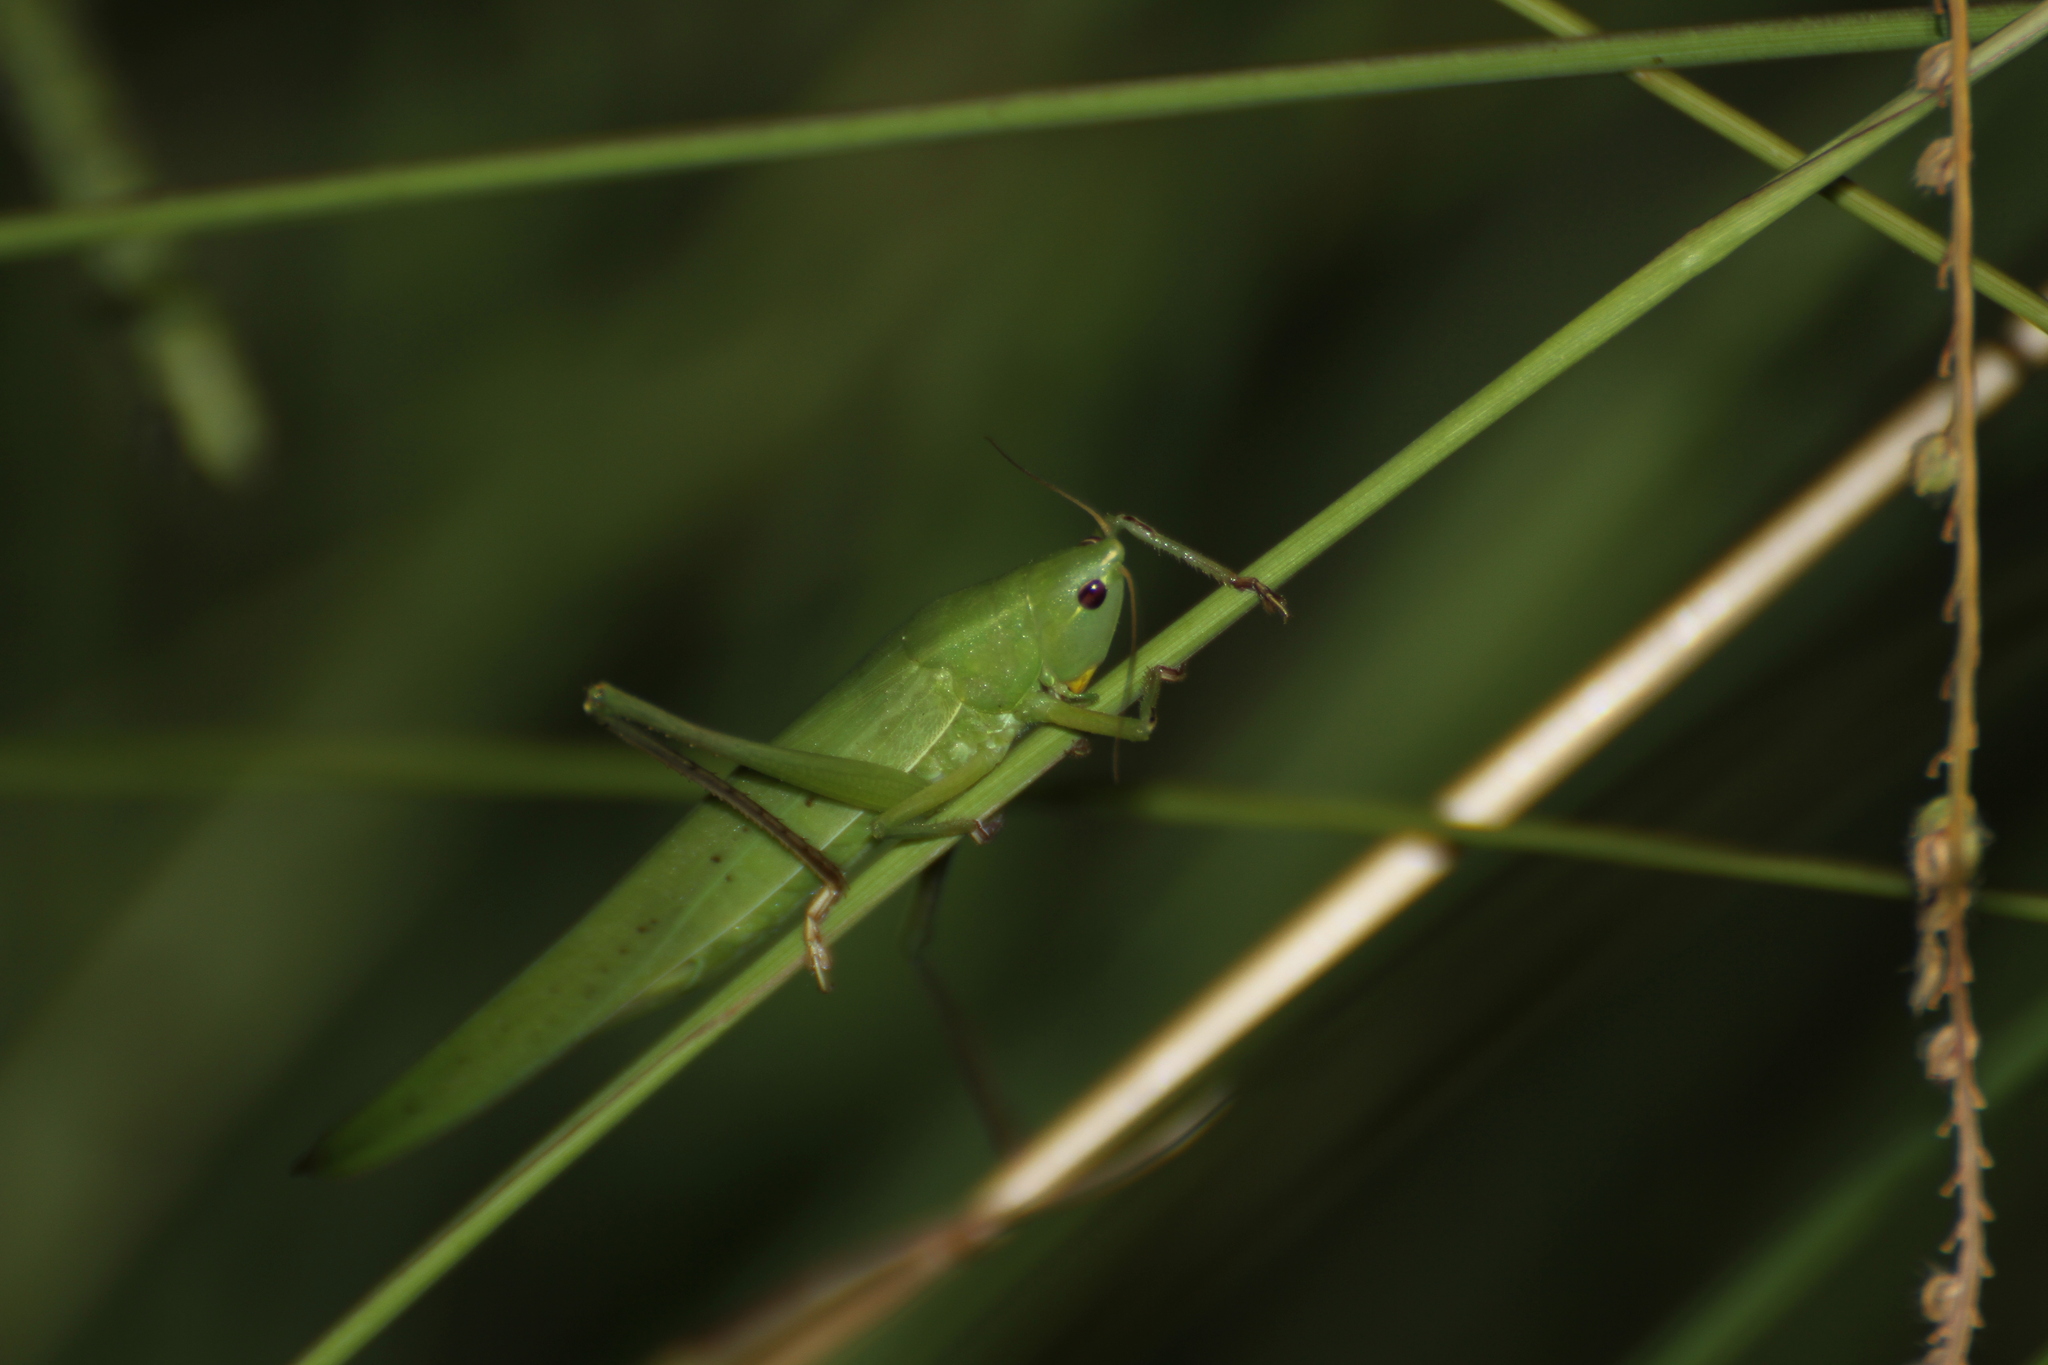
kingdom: Animalia
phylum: Arthropoda
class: Insecta
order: Orthoptera
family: Tettigoniidae
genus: Ruspolia
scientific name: Ruspolia nitidula
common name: Large conehead
